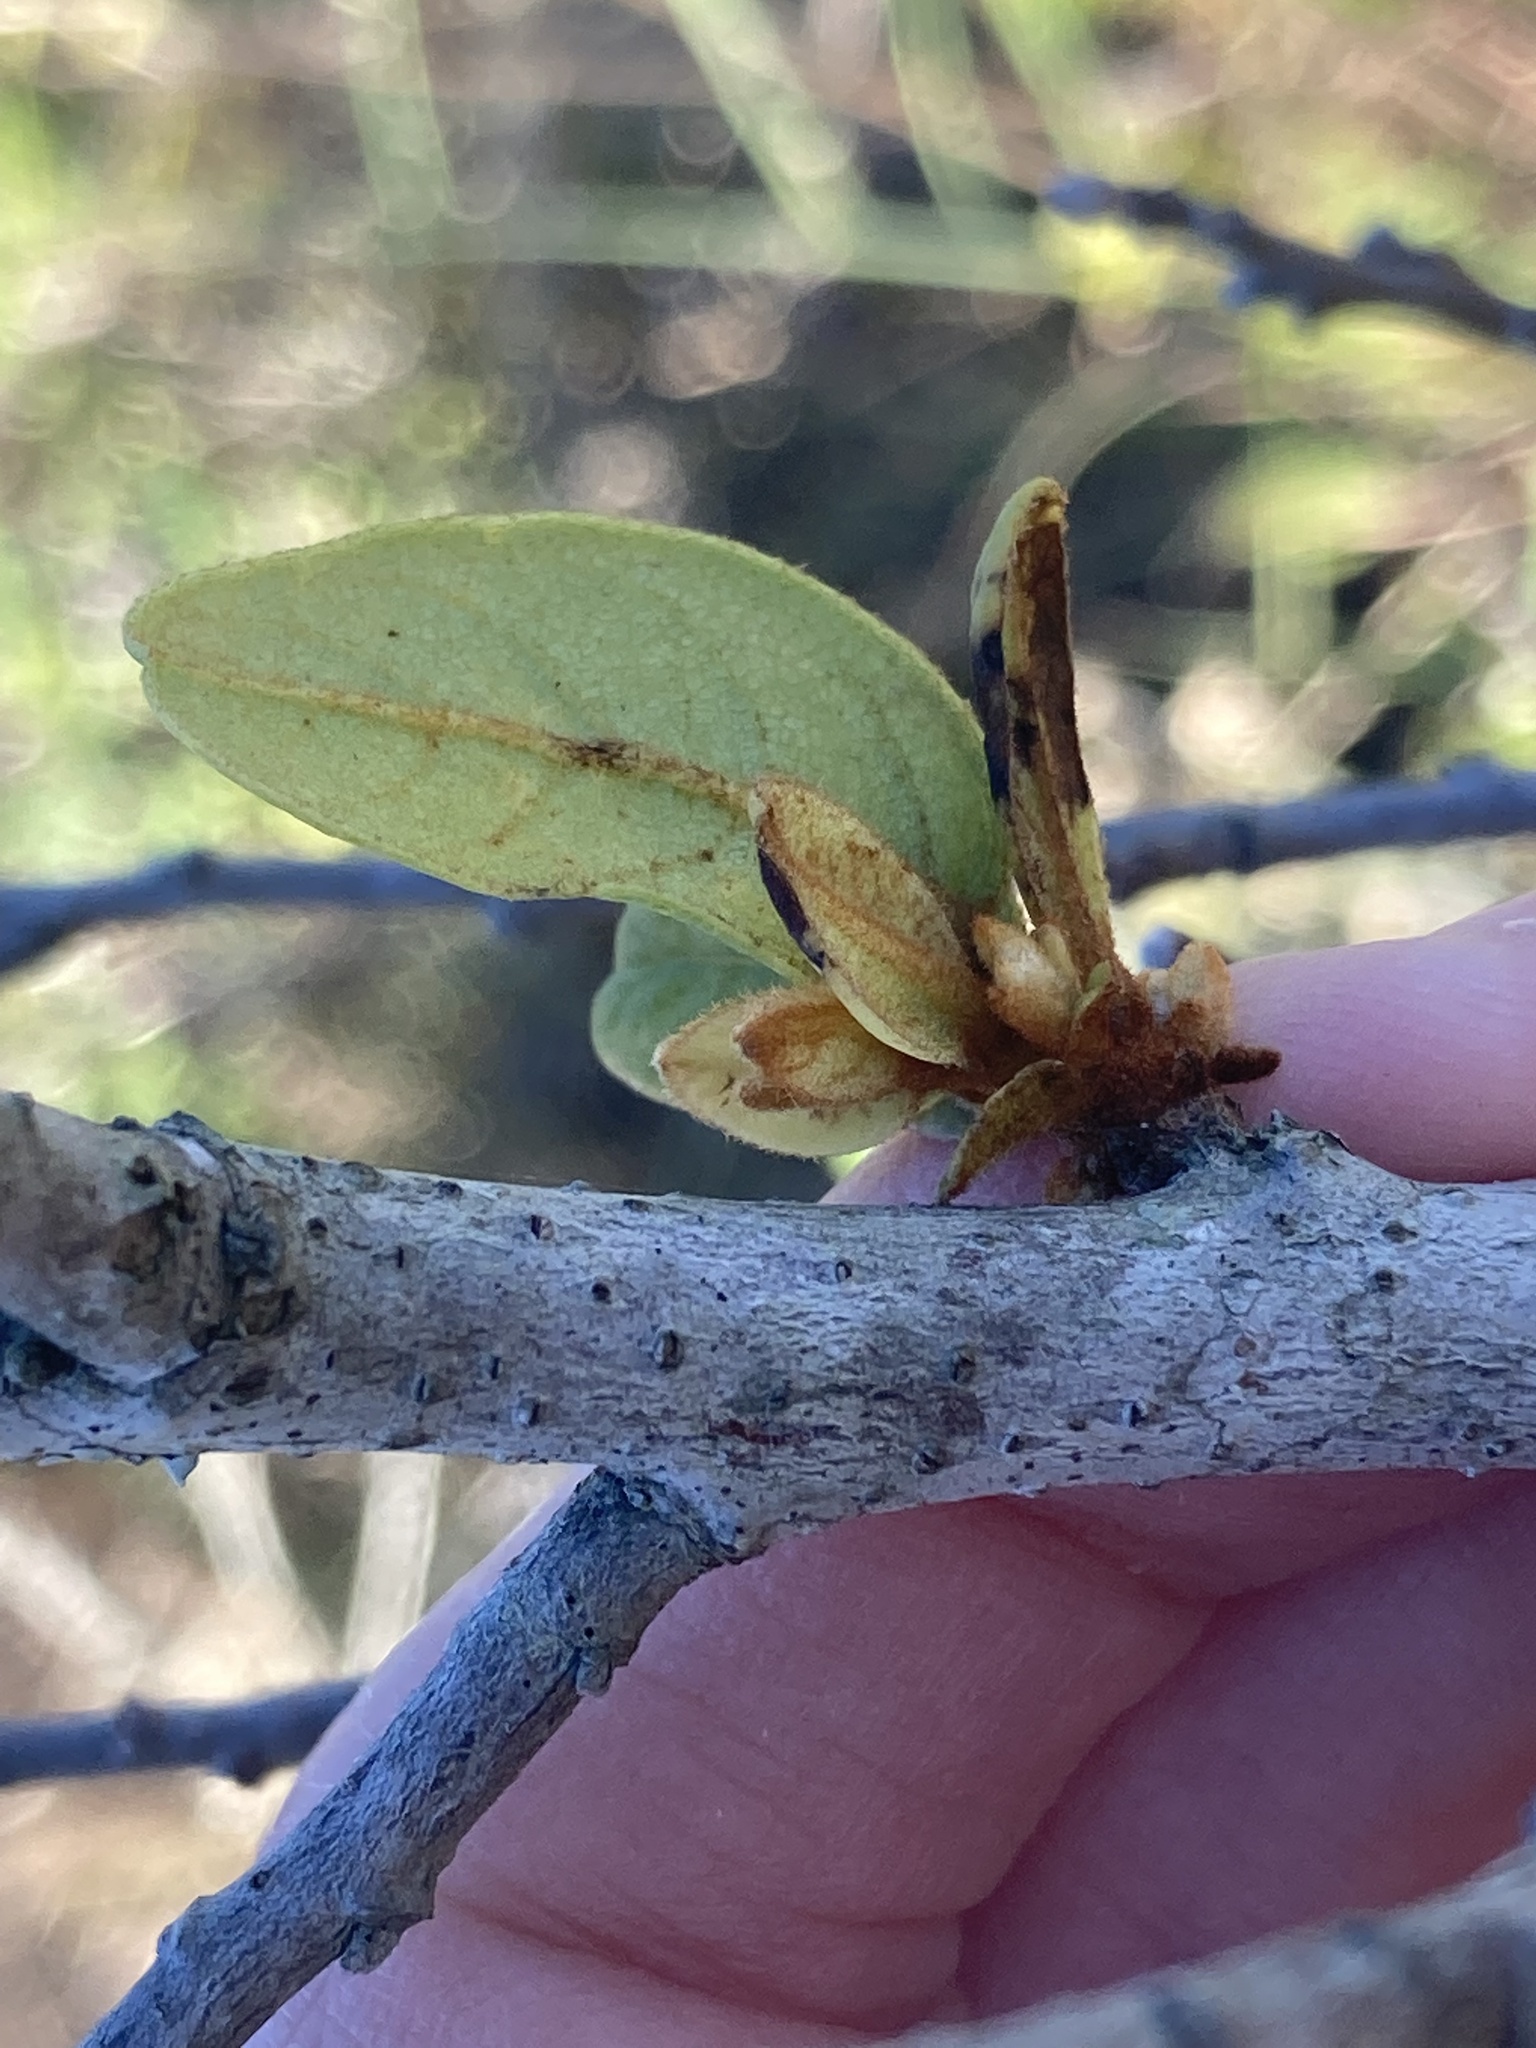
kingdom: Plantae
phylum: Tracheophyta
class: Magnoliopsida
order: Magnoliales
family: Annonaceae
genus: Asimina
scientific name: Asimina reticulata
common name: Flag pawpaw
